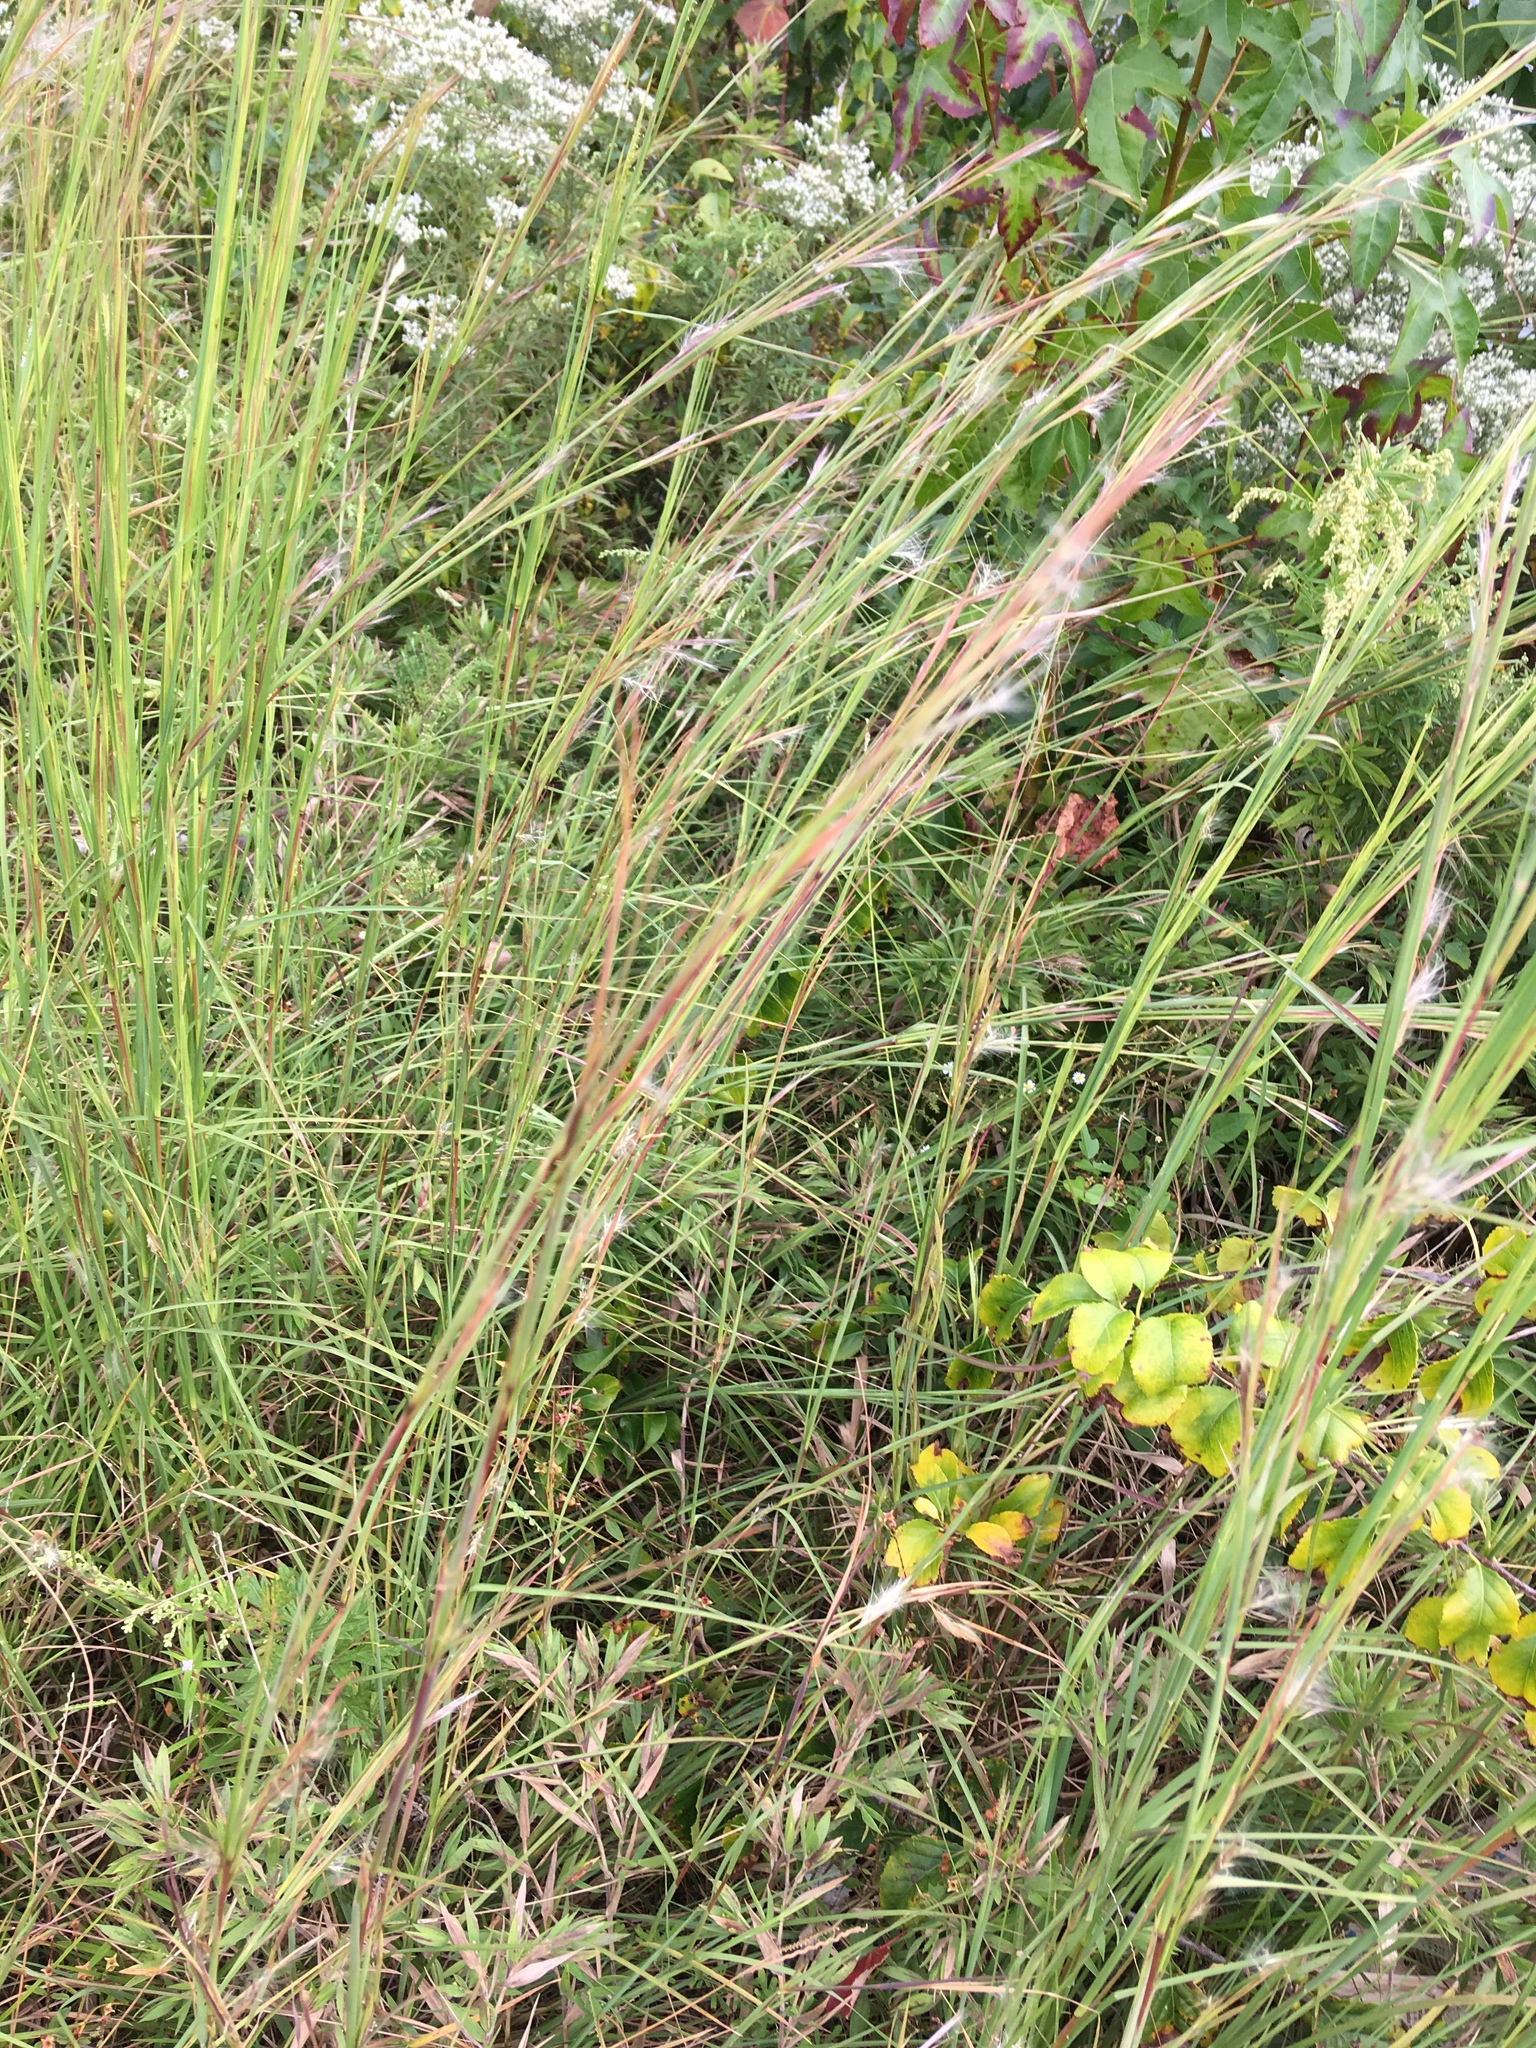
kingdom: Plantae
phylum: Tracheophyta
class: Liliopsida
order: Poales
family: Poaceae
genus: Schizachyrium
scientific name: Schizachyrium scoparium
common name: Little bluestem
